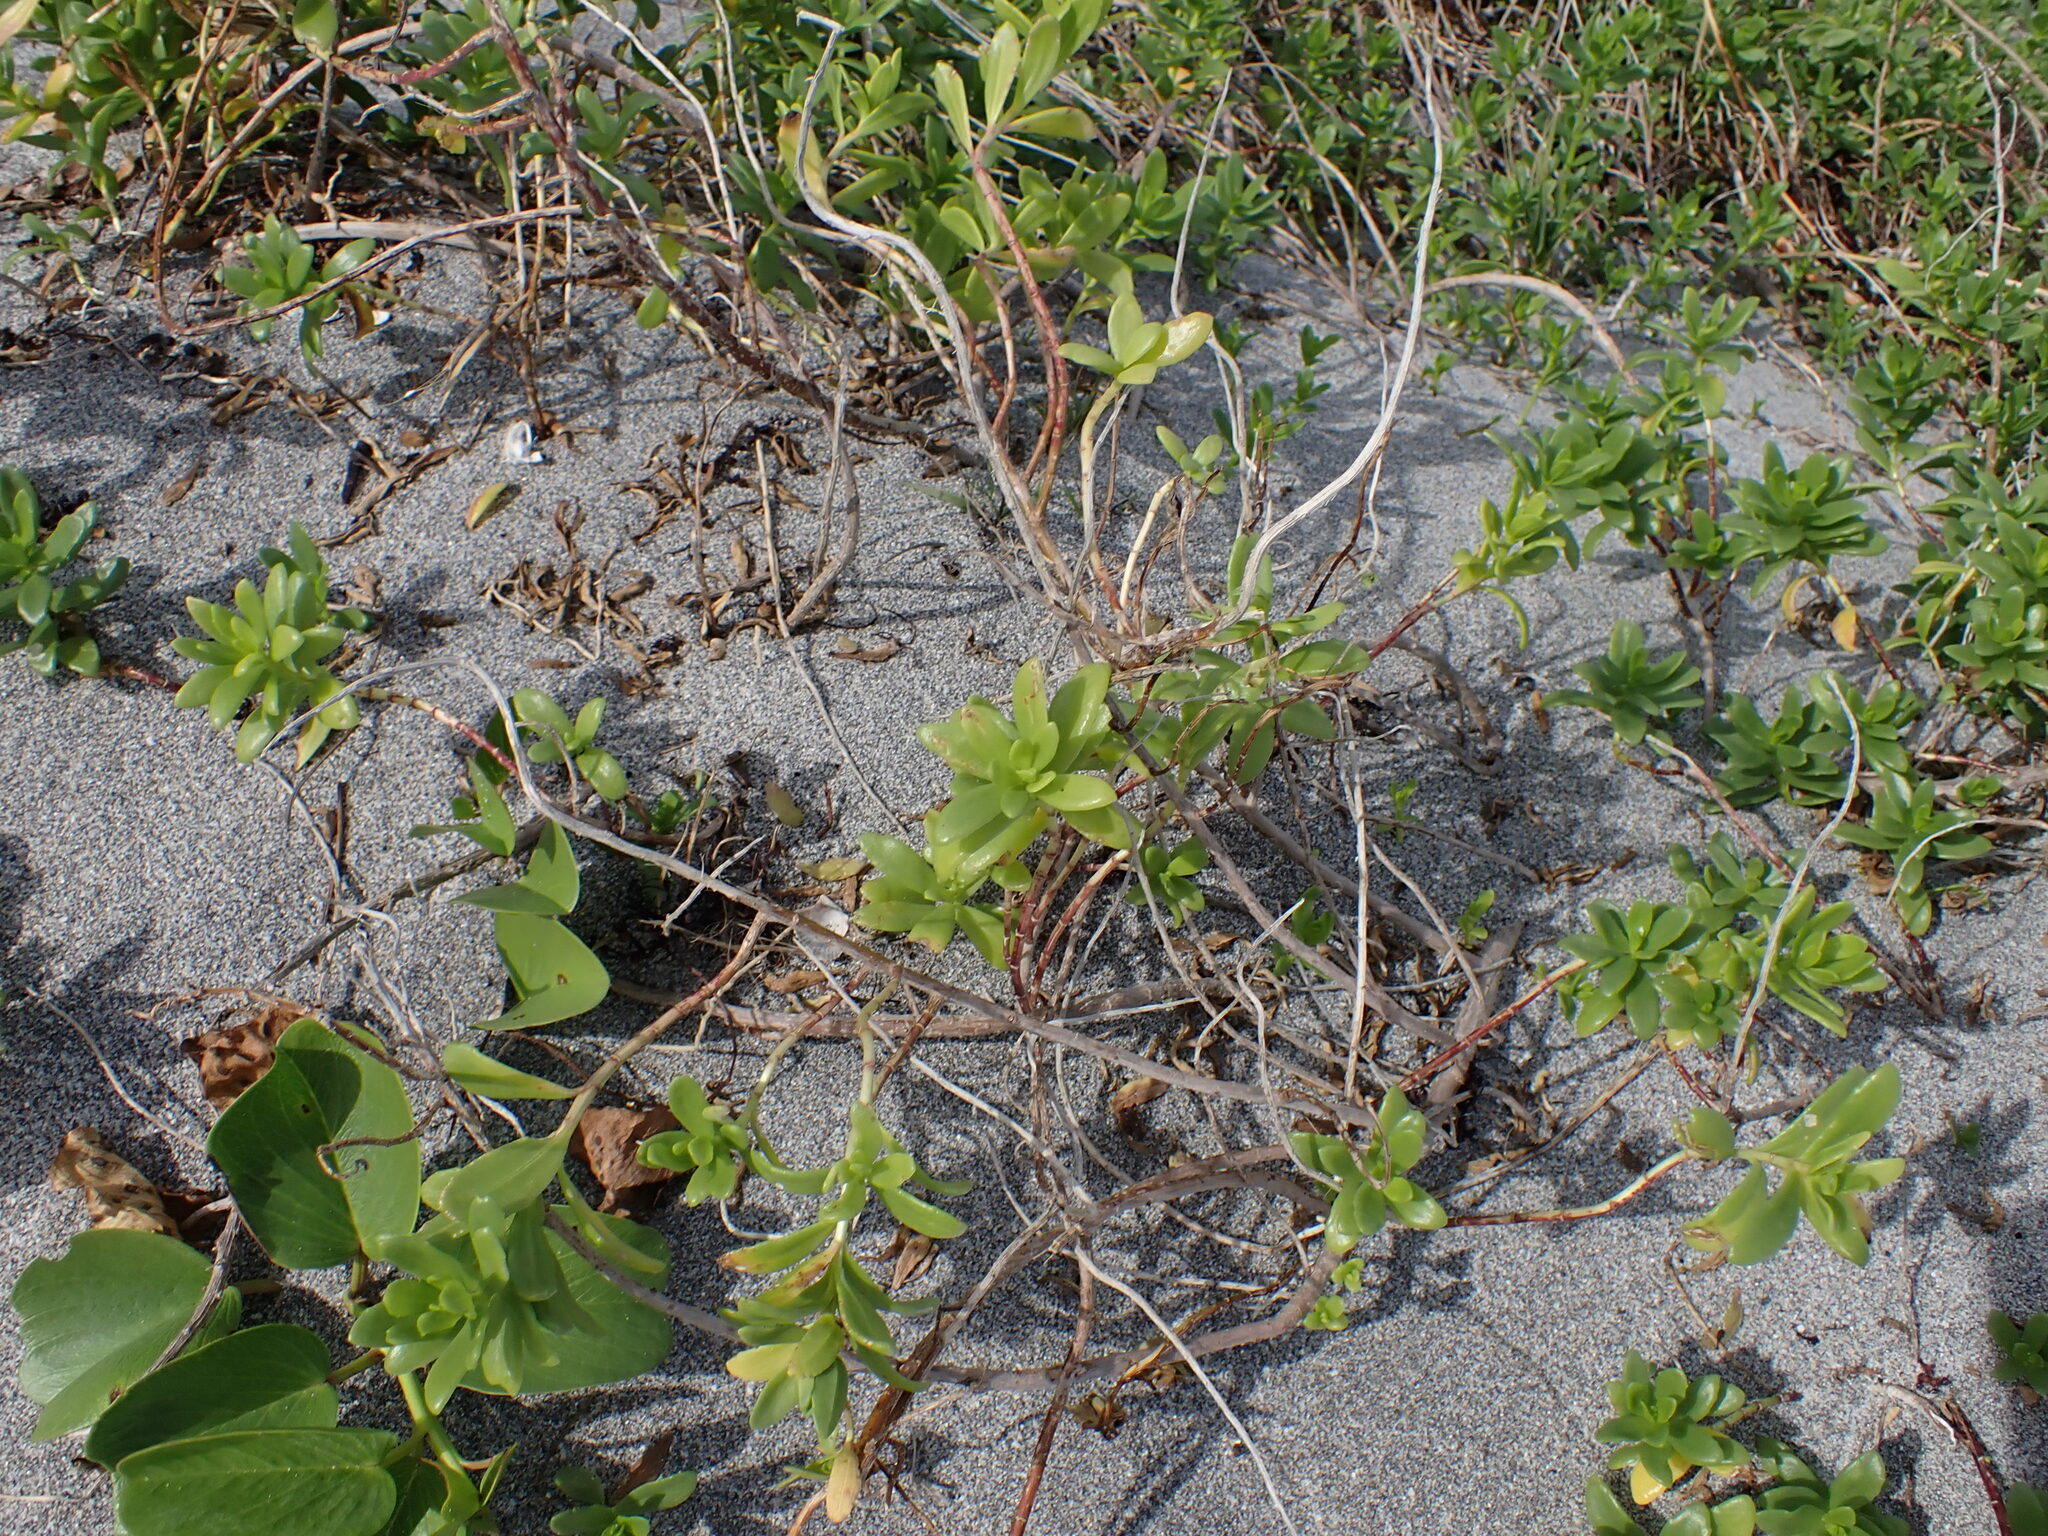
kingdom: Plantae
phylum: Tracheophyta
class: Magnoliopsida
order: Asterales
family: Asteraceae
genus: Iva
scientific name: Iva imbricata
